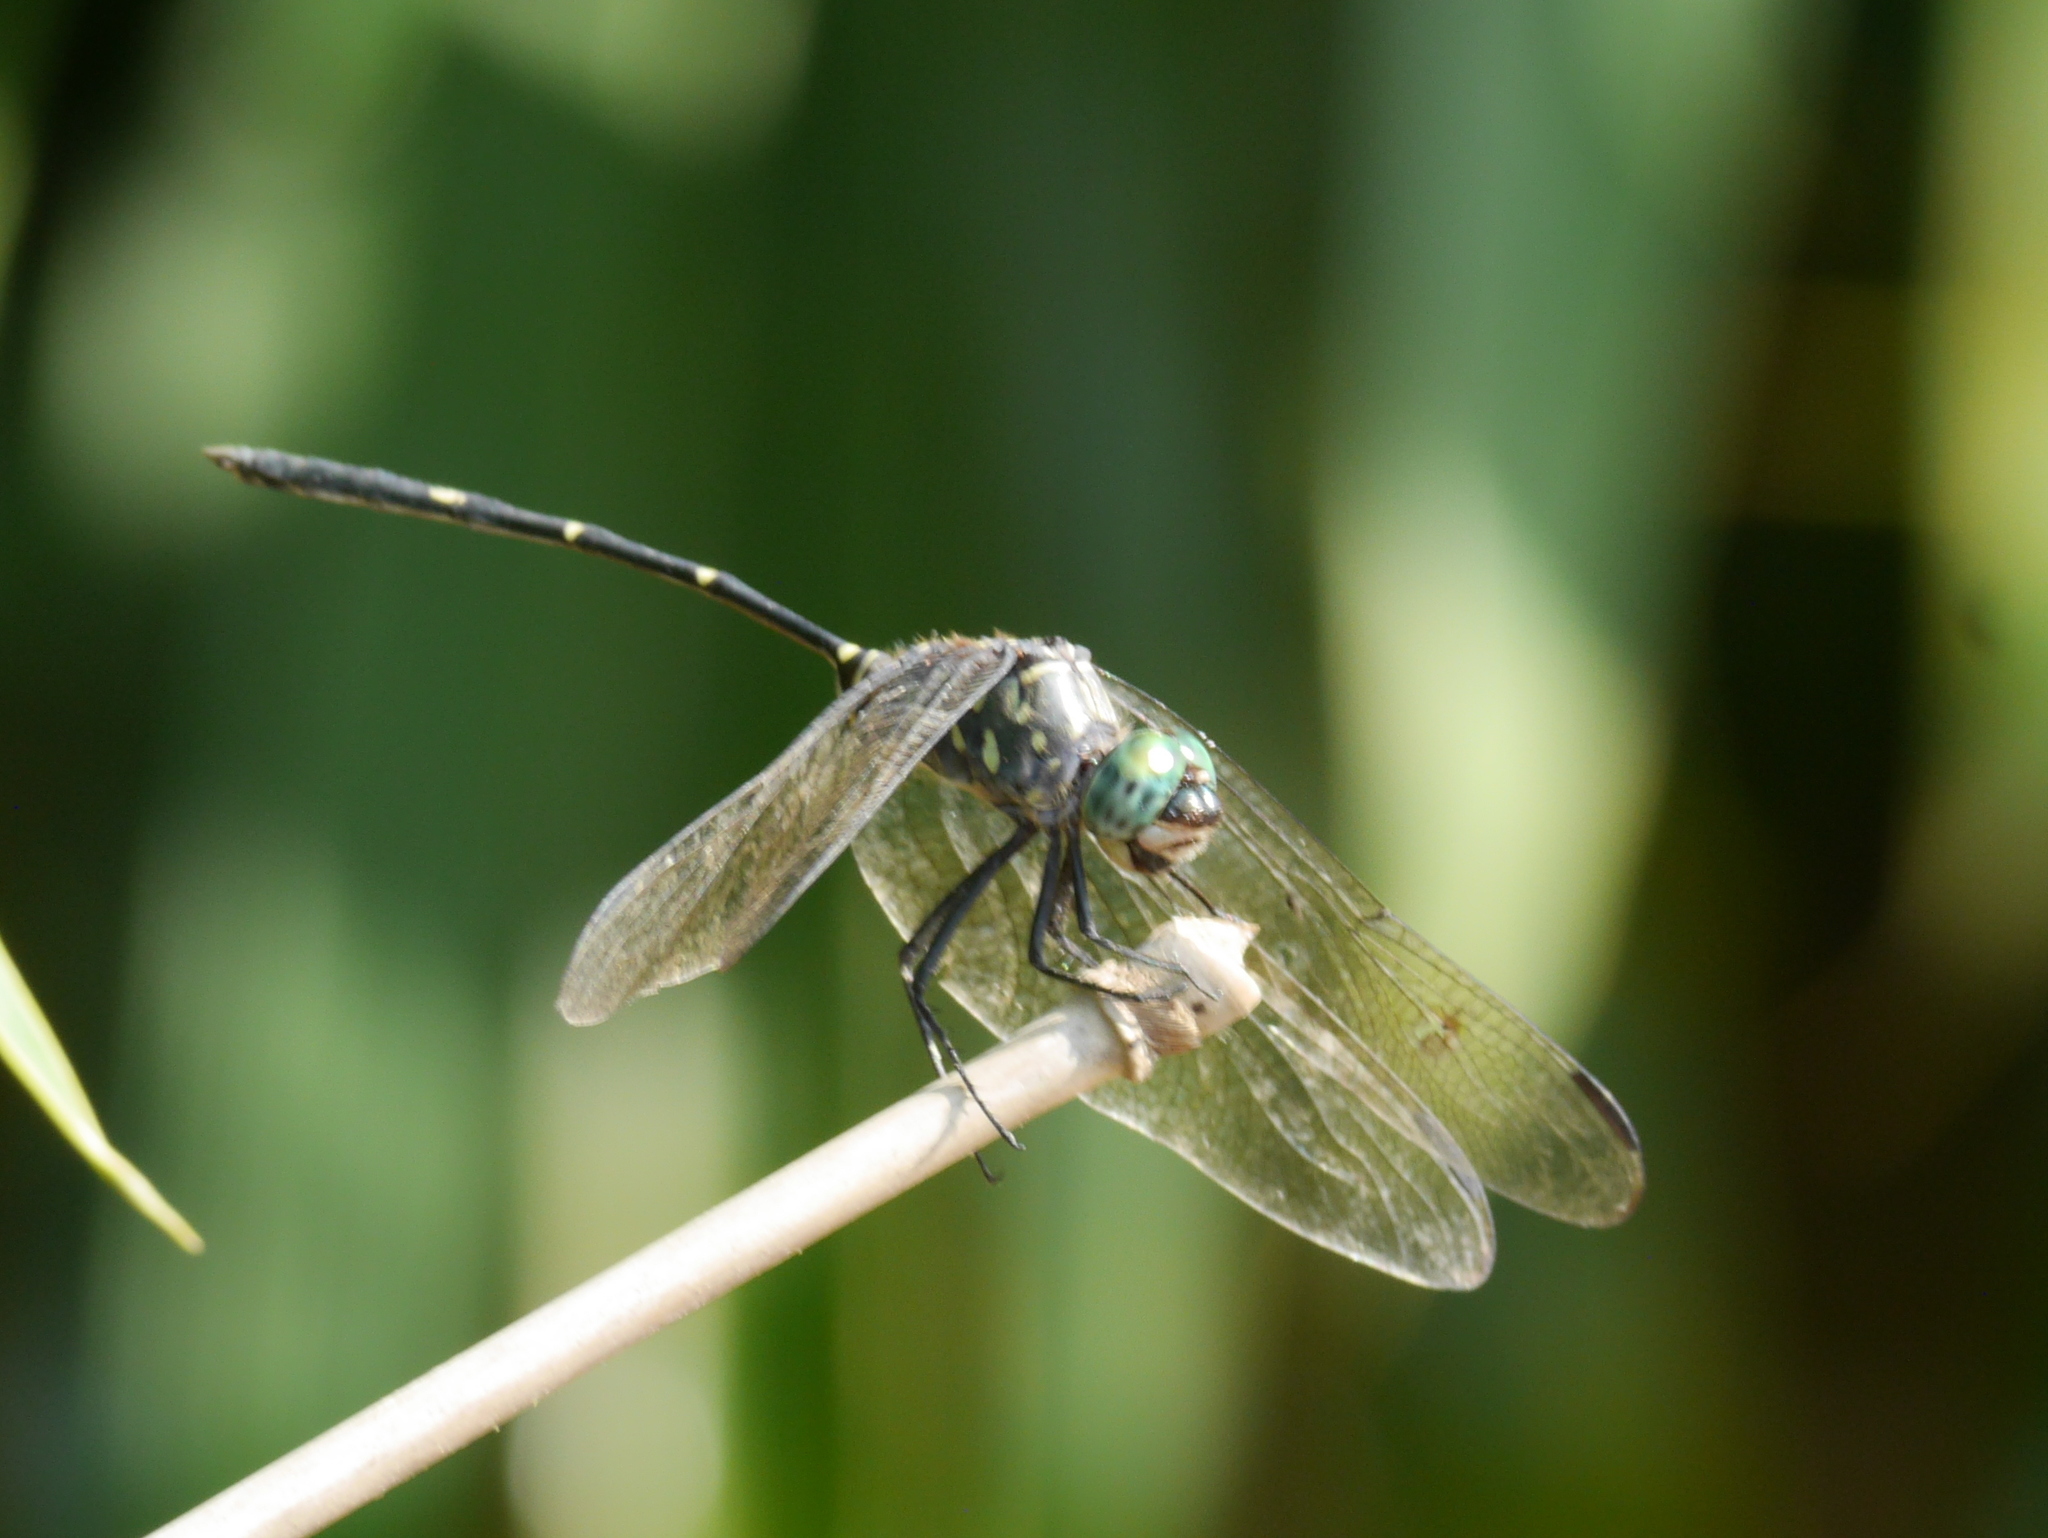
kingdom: Animalia
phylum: Arthropoda
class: Insecta
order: Odonata
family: Libellulidae
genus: Olpogastra
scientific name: Olpogastra lugubris
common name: Bottletail
